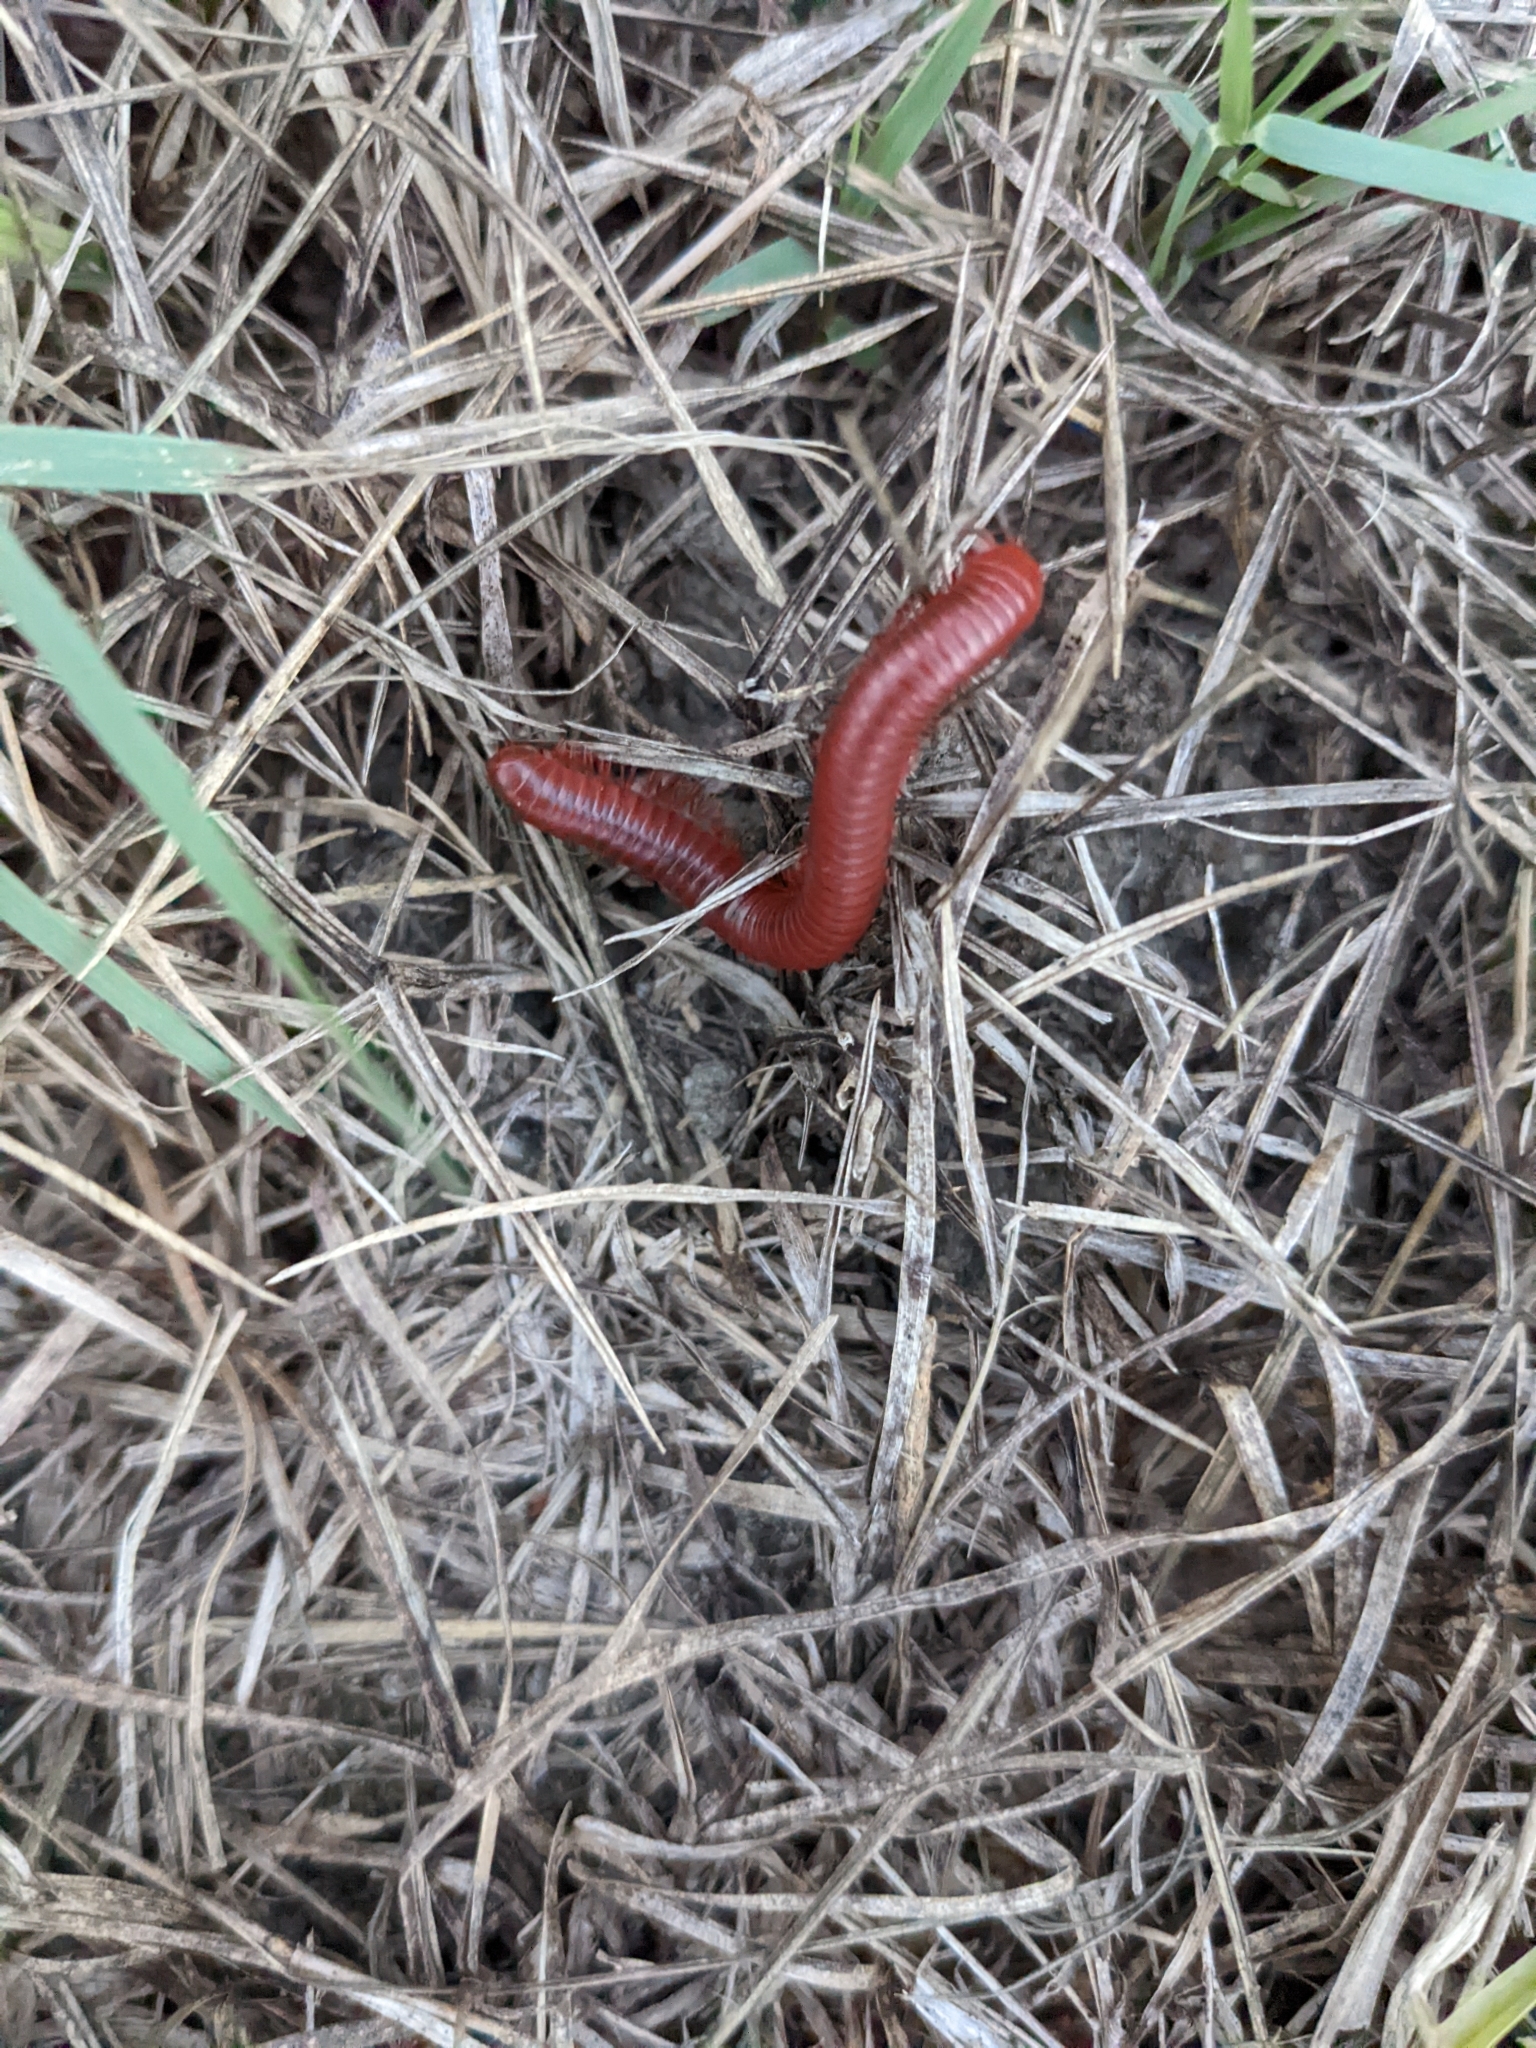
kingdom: Animalia
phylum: Arthropoda
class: Diplopoda
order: Spirobolida
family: Pachybolidae
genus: Trigoniulus
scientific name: Trigoniulus corallinus
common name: Millipede
